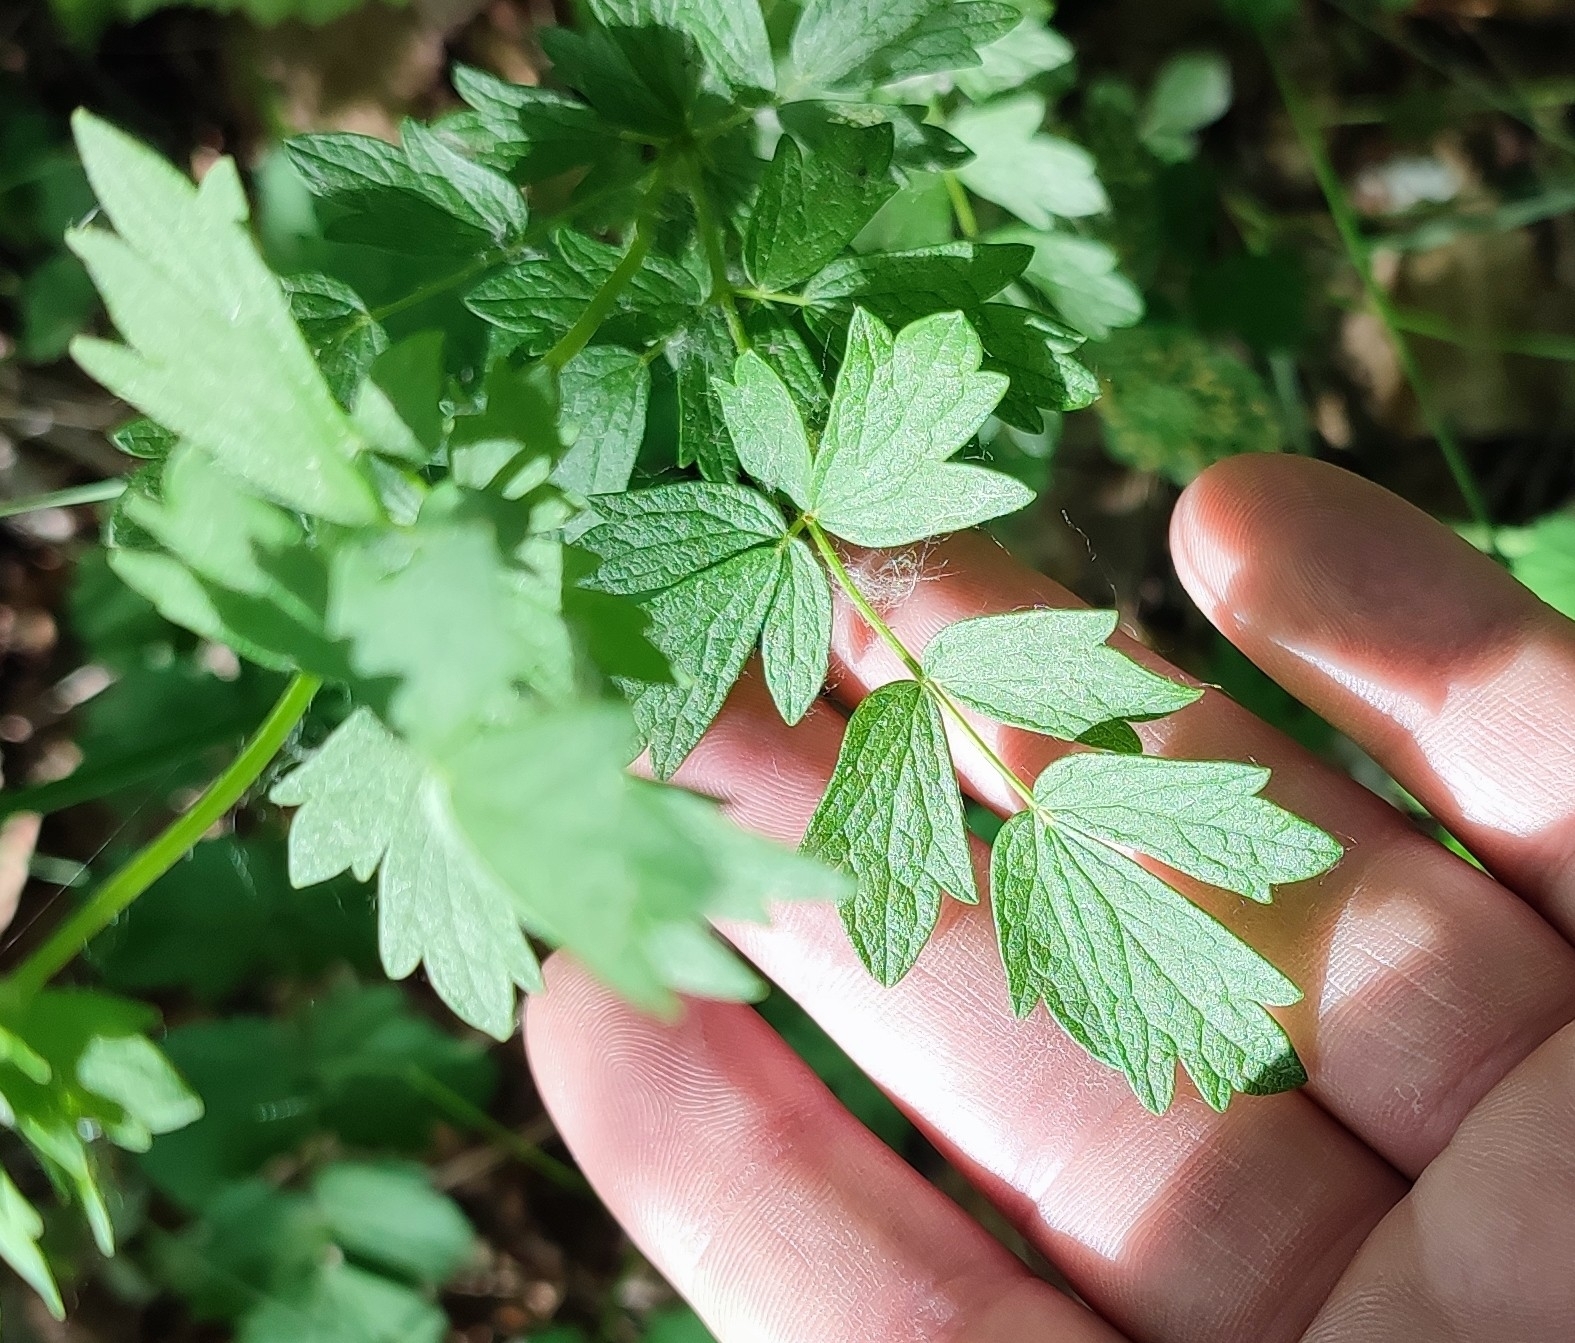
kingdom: Plantae
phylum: Tracheophyta
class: Magnoliopsida
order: Ranunculales
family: Ranunculaceae
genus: Thalictrum
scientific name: Thalictrum simplex
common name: Small meadow-rue
